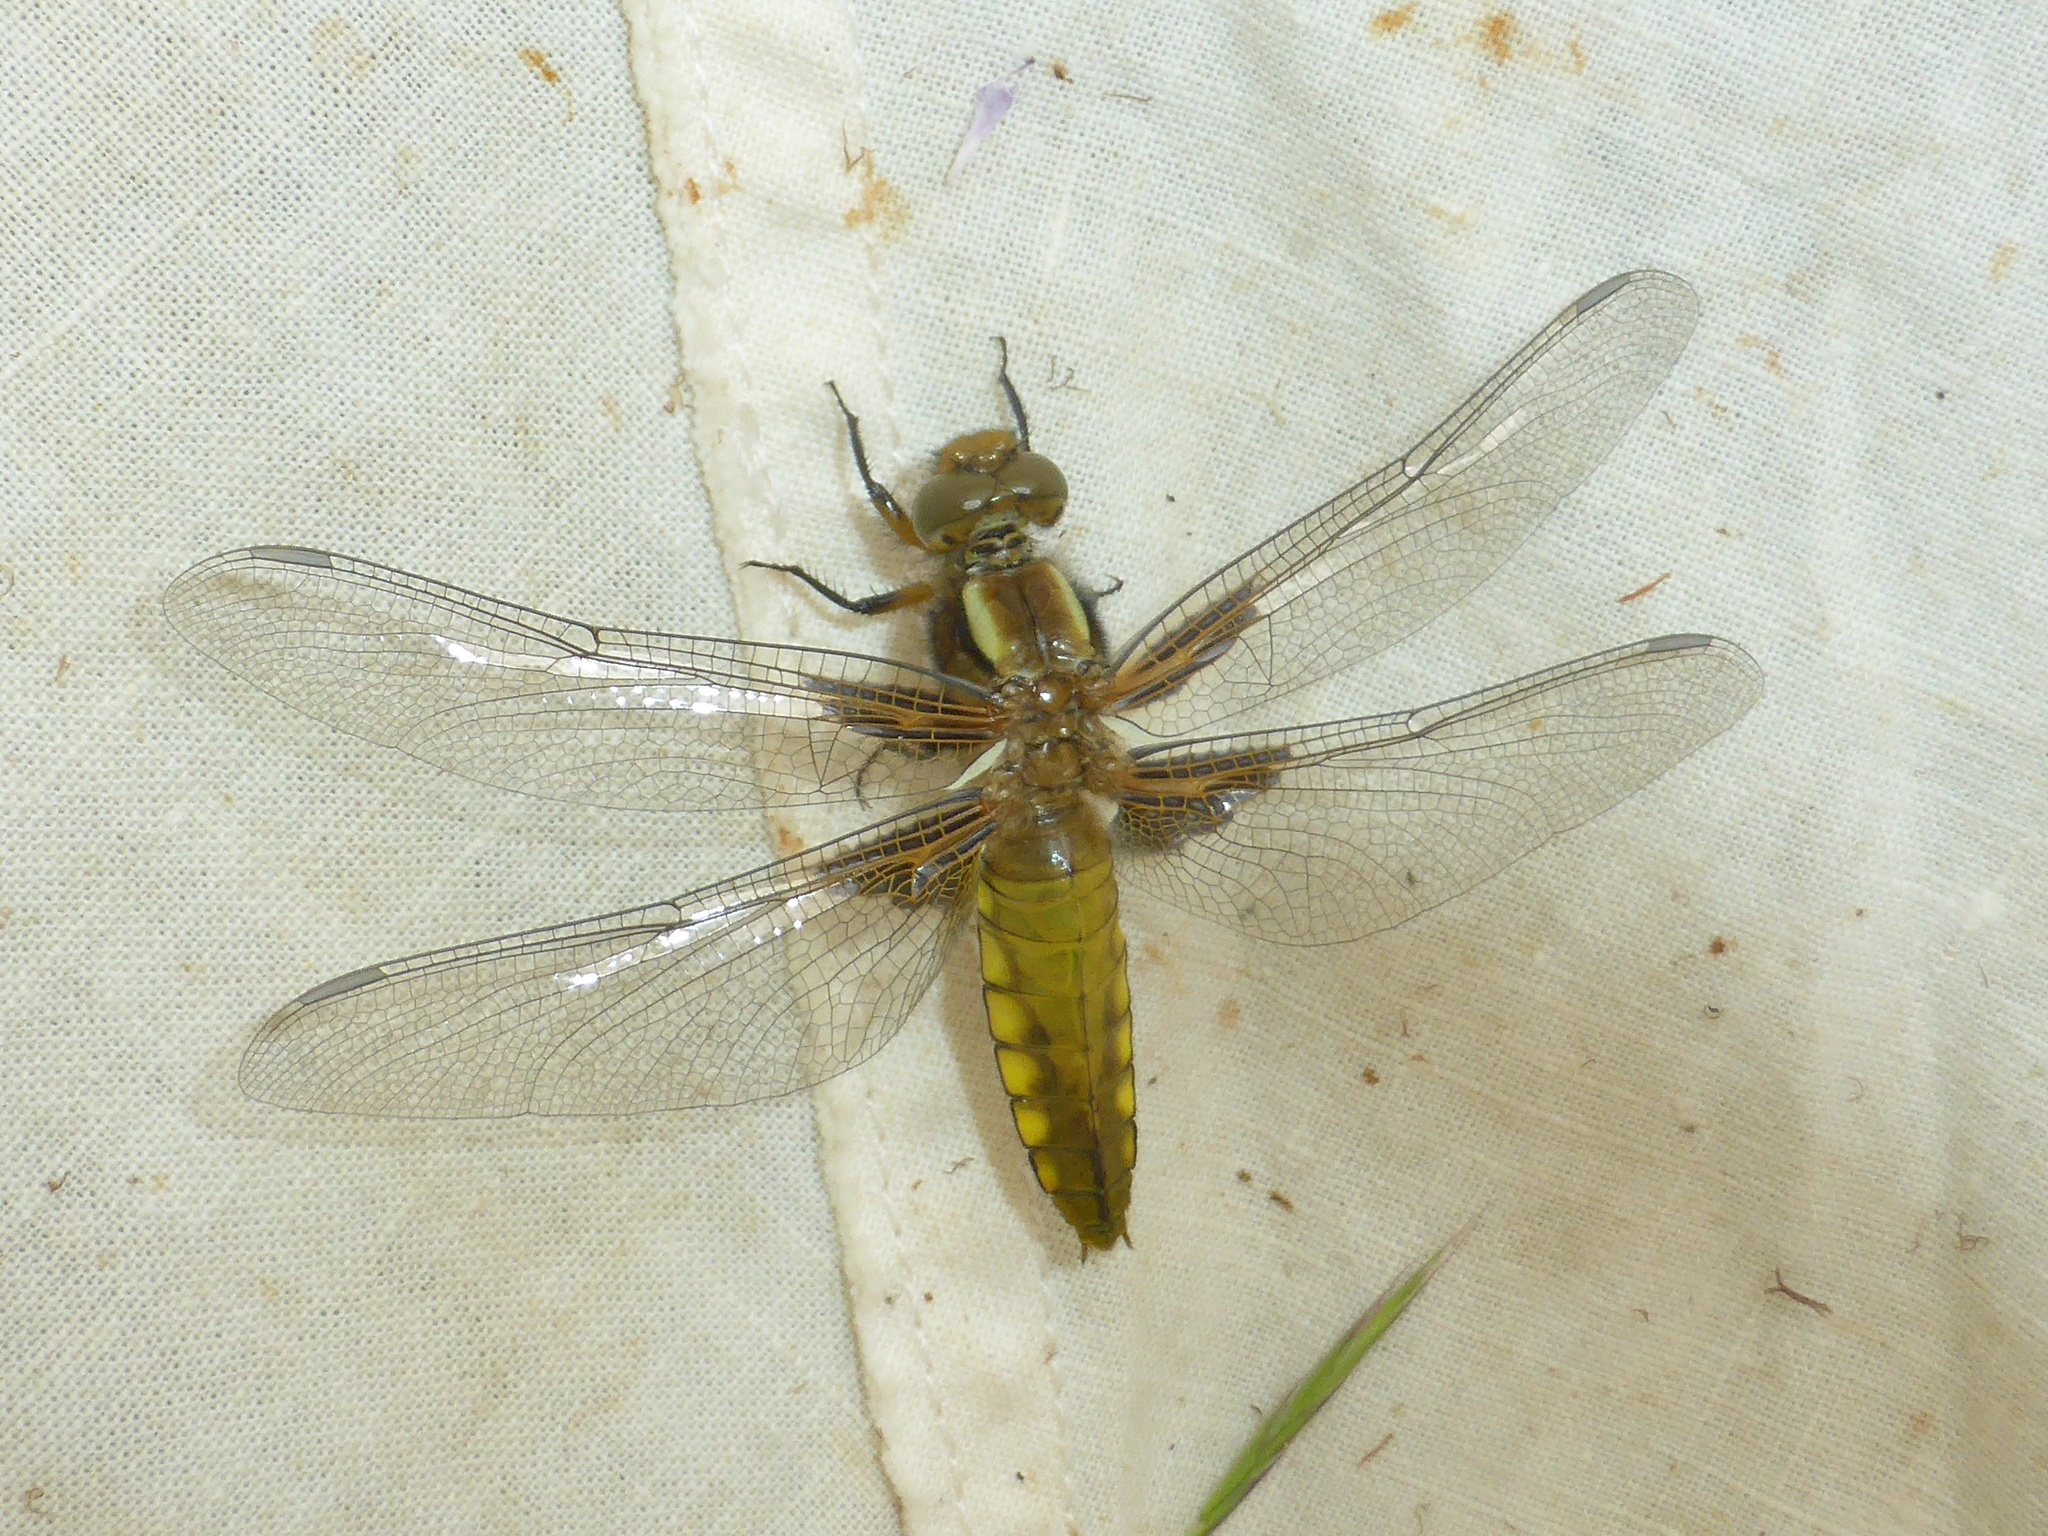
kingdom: Animalia
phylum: Arthropoda
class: Insecta
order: Odonata
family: Libellulidae
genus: Libellula
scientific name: Libellula depressa
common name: Broad-bodied chaser
